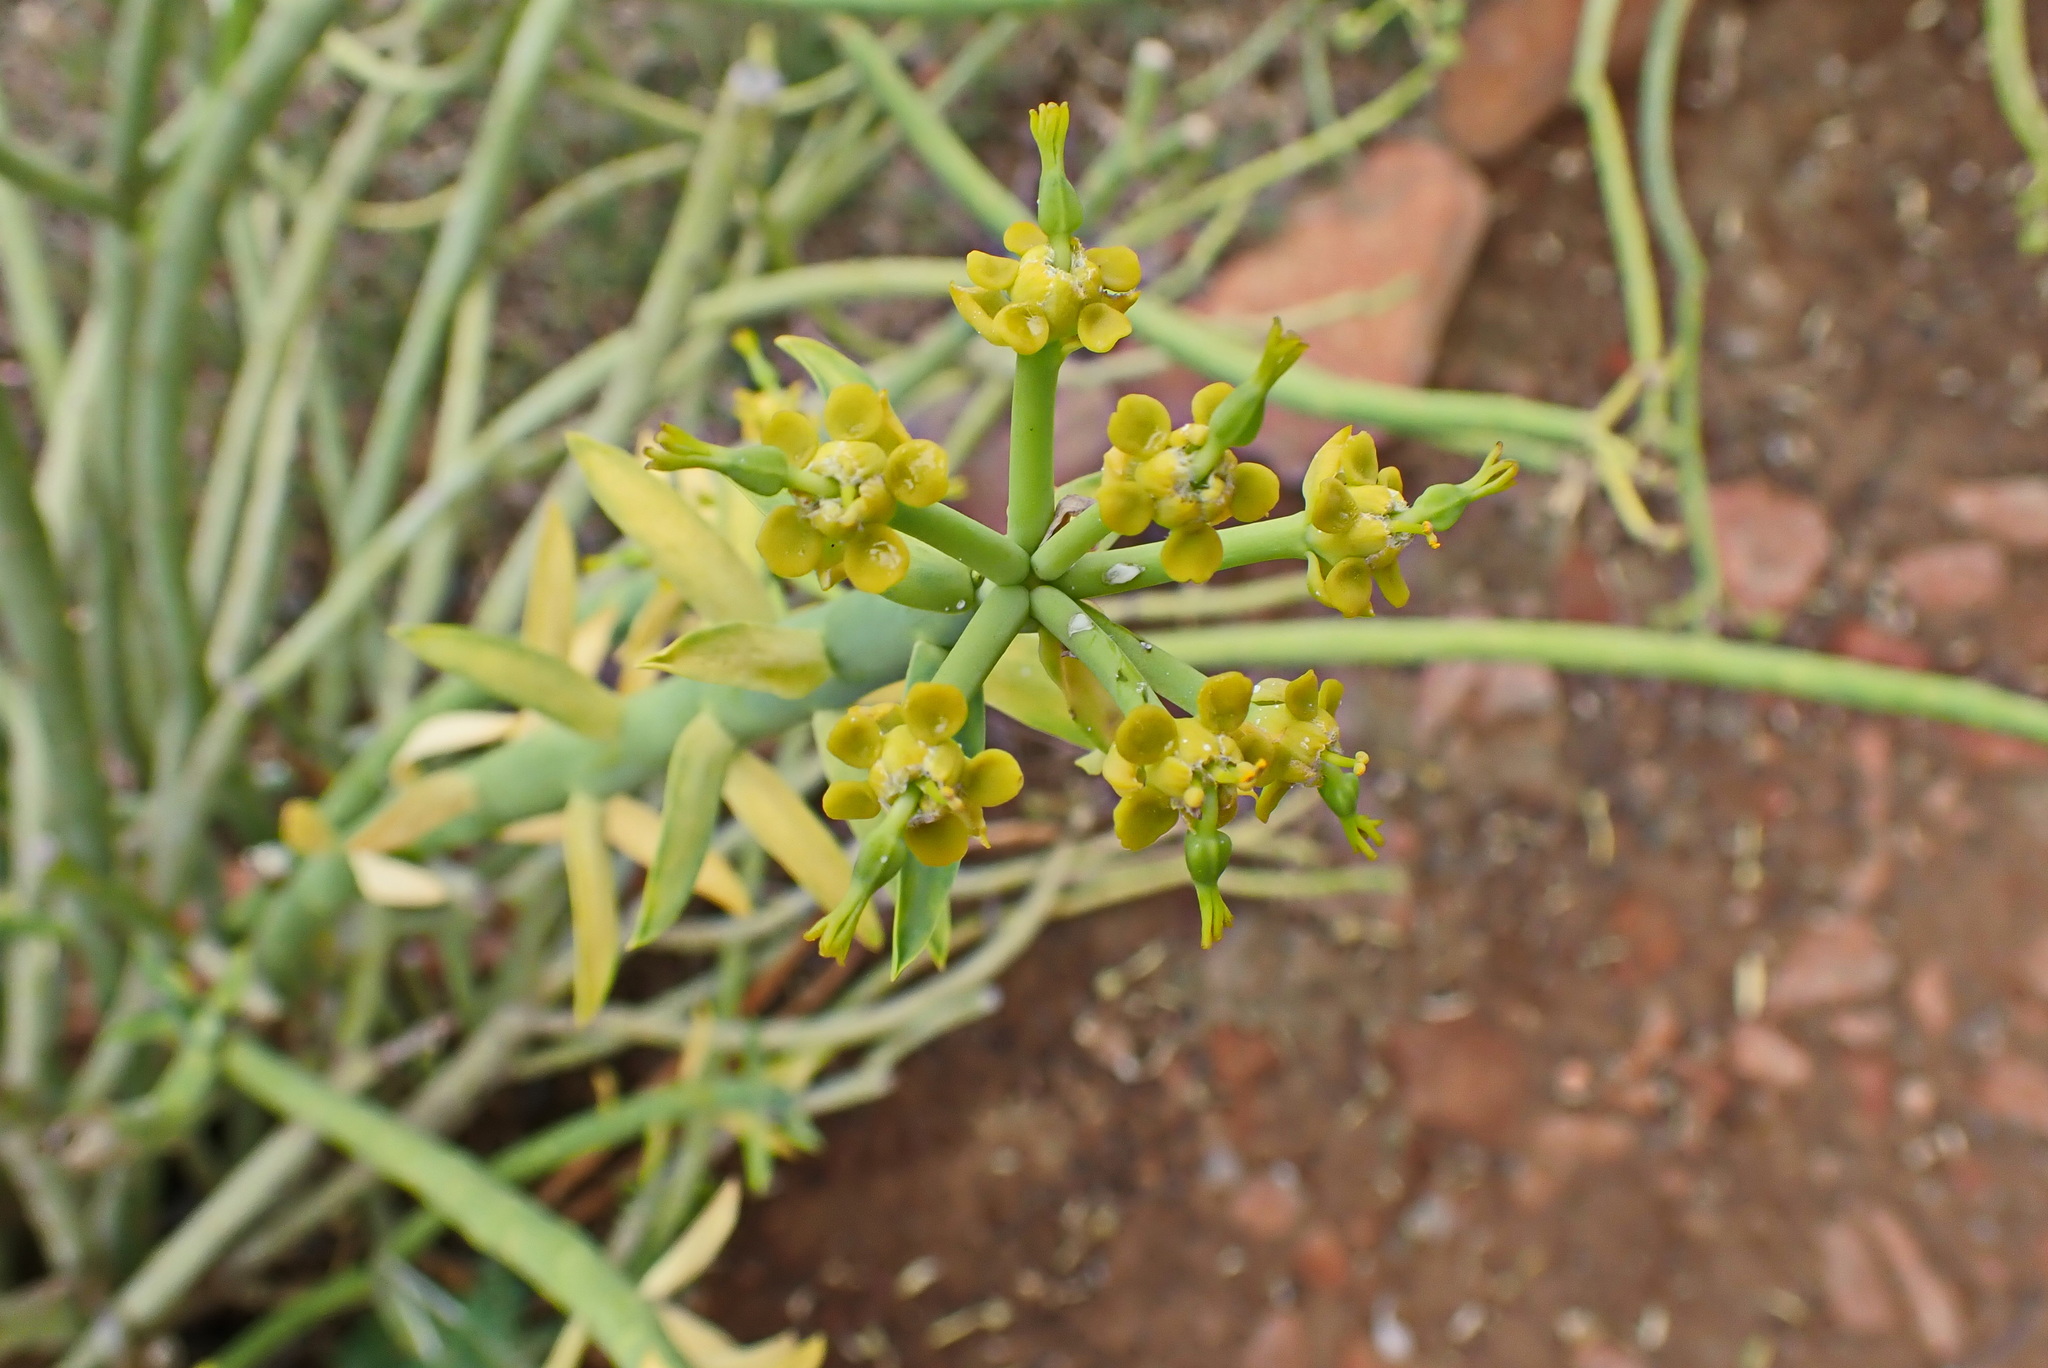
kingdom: Plantae
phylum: Tracheophyta
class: Magnoliopsida
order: Malpighiales
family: Euphorbiaceae
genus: Euphorbia
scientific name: Euphorbia mauritanica
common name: Jackal's-food
